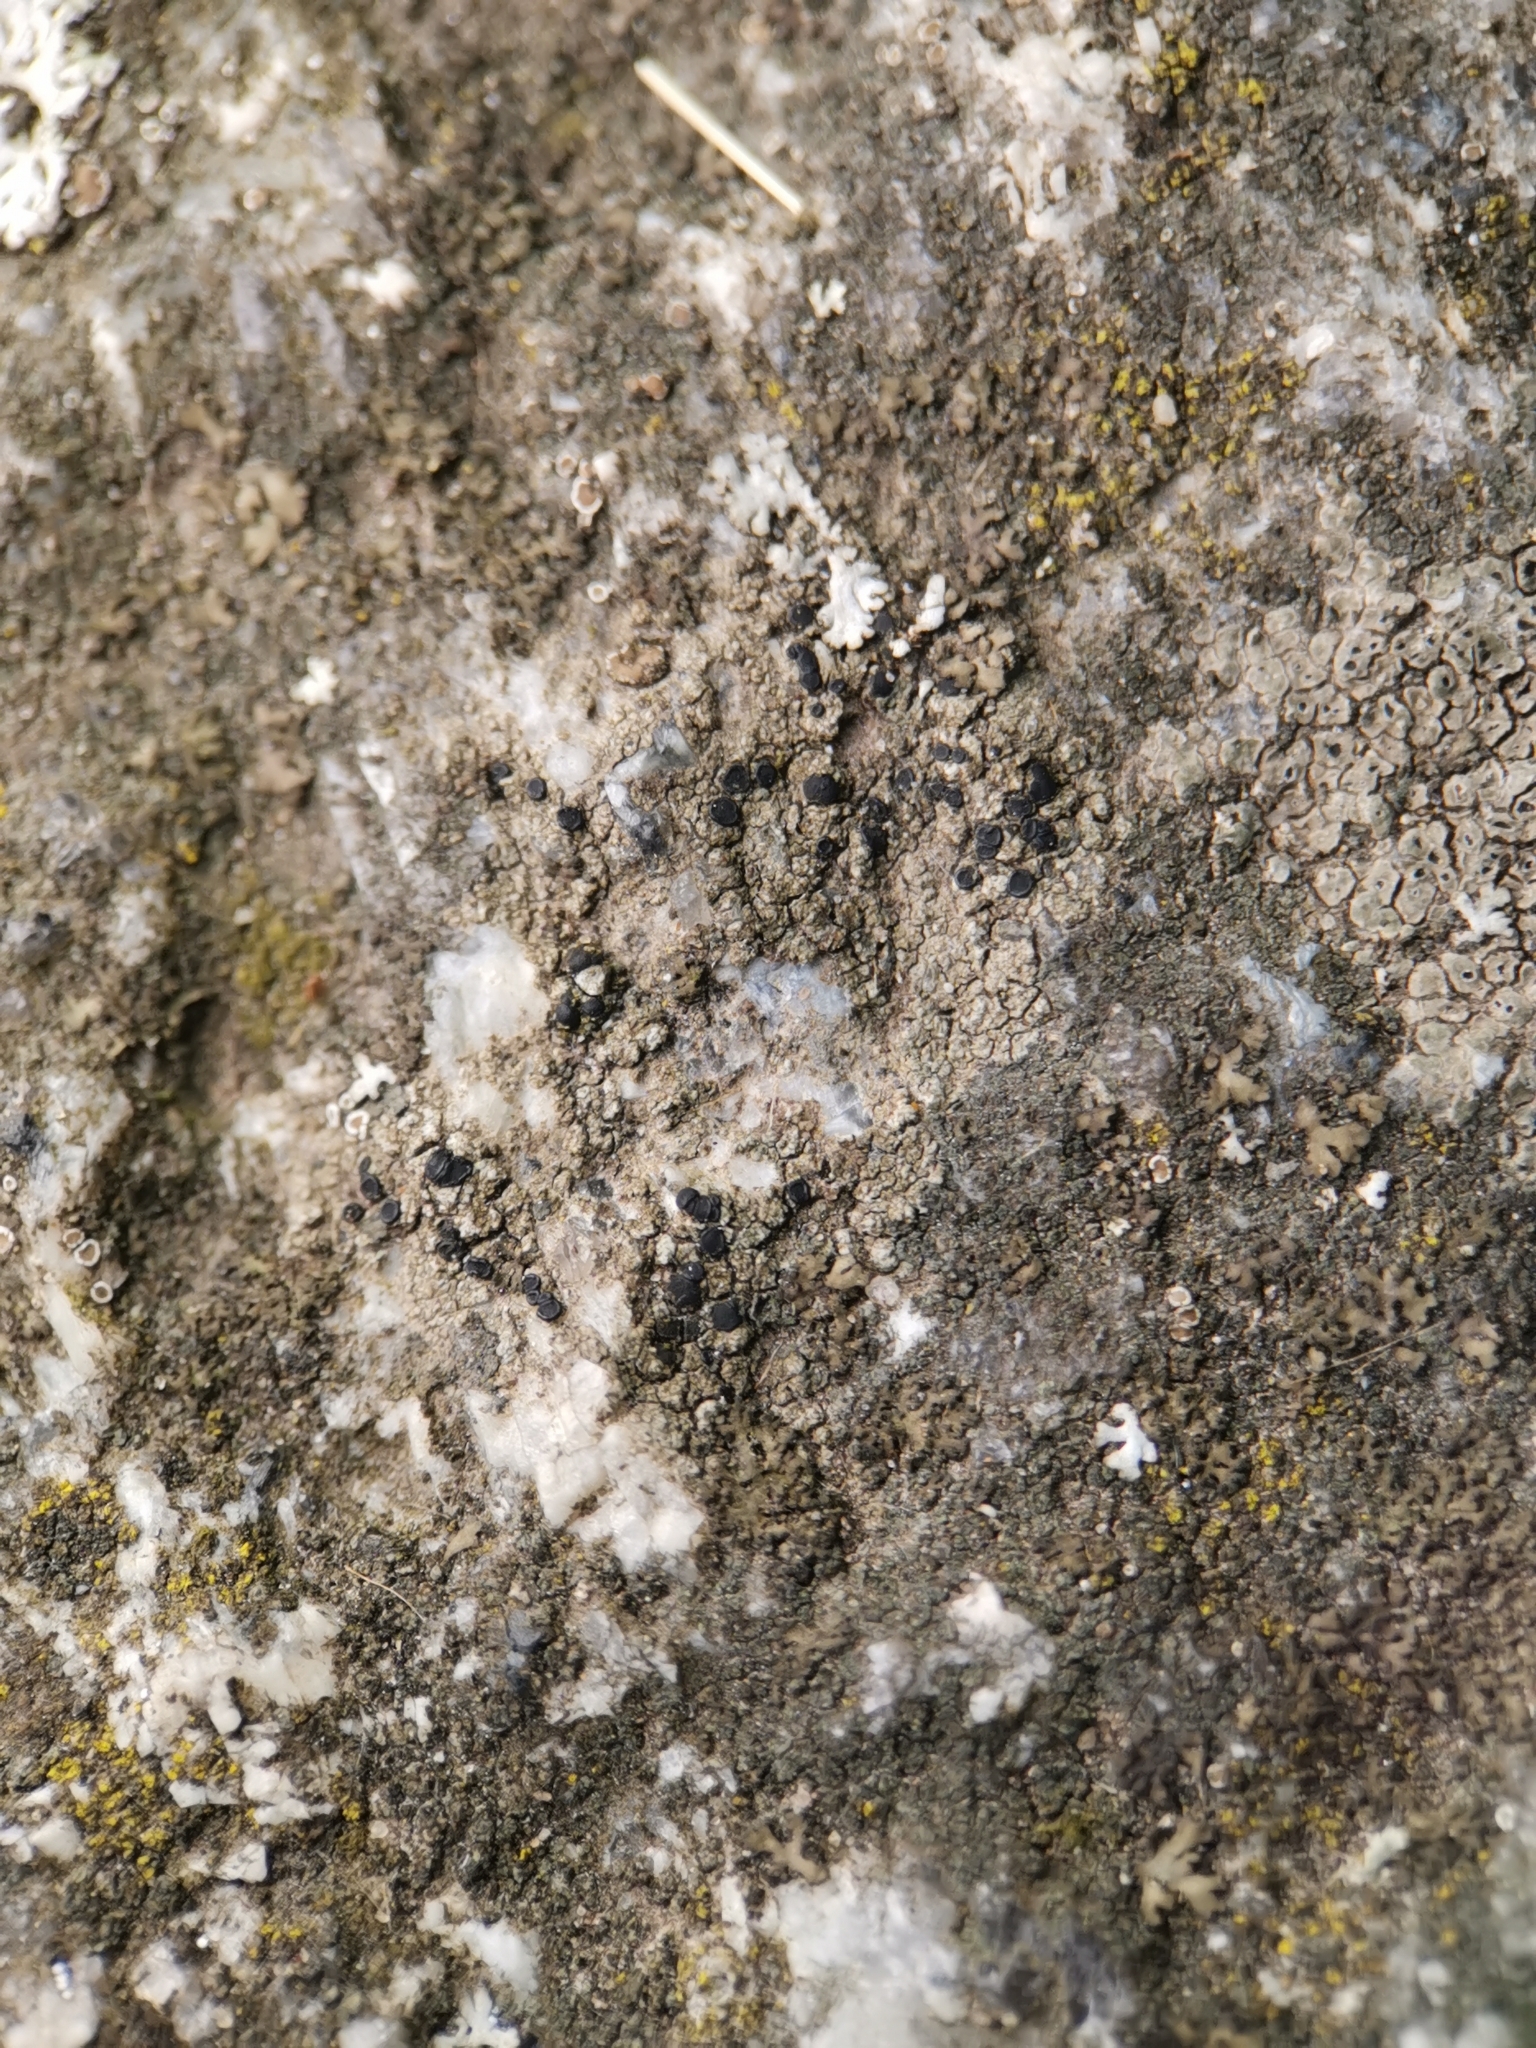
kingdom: Fungi
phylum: Ascomycota
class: Lecanoromycetes
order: Lecanorales
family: Lecanoraceae
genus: Lecidella
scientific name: Lecidella stigmatea
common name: Limestone disc lichen
